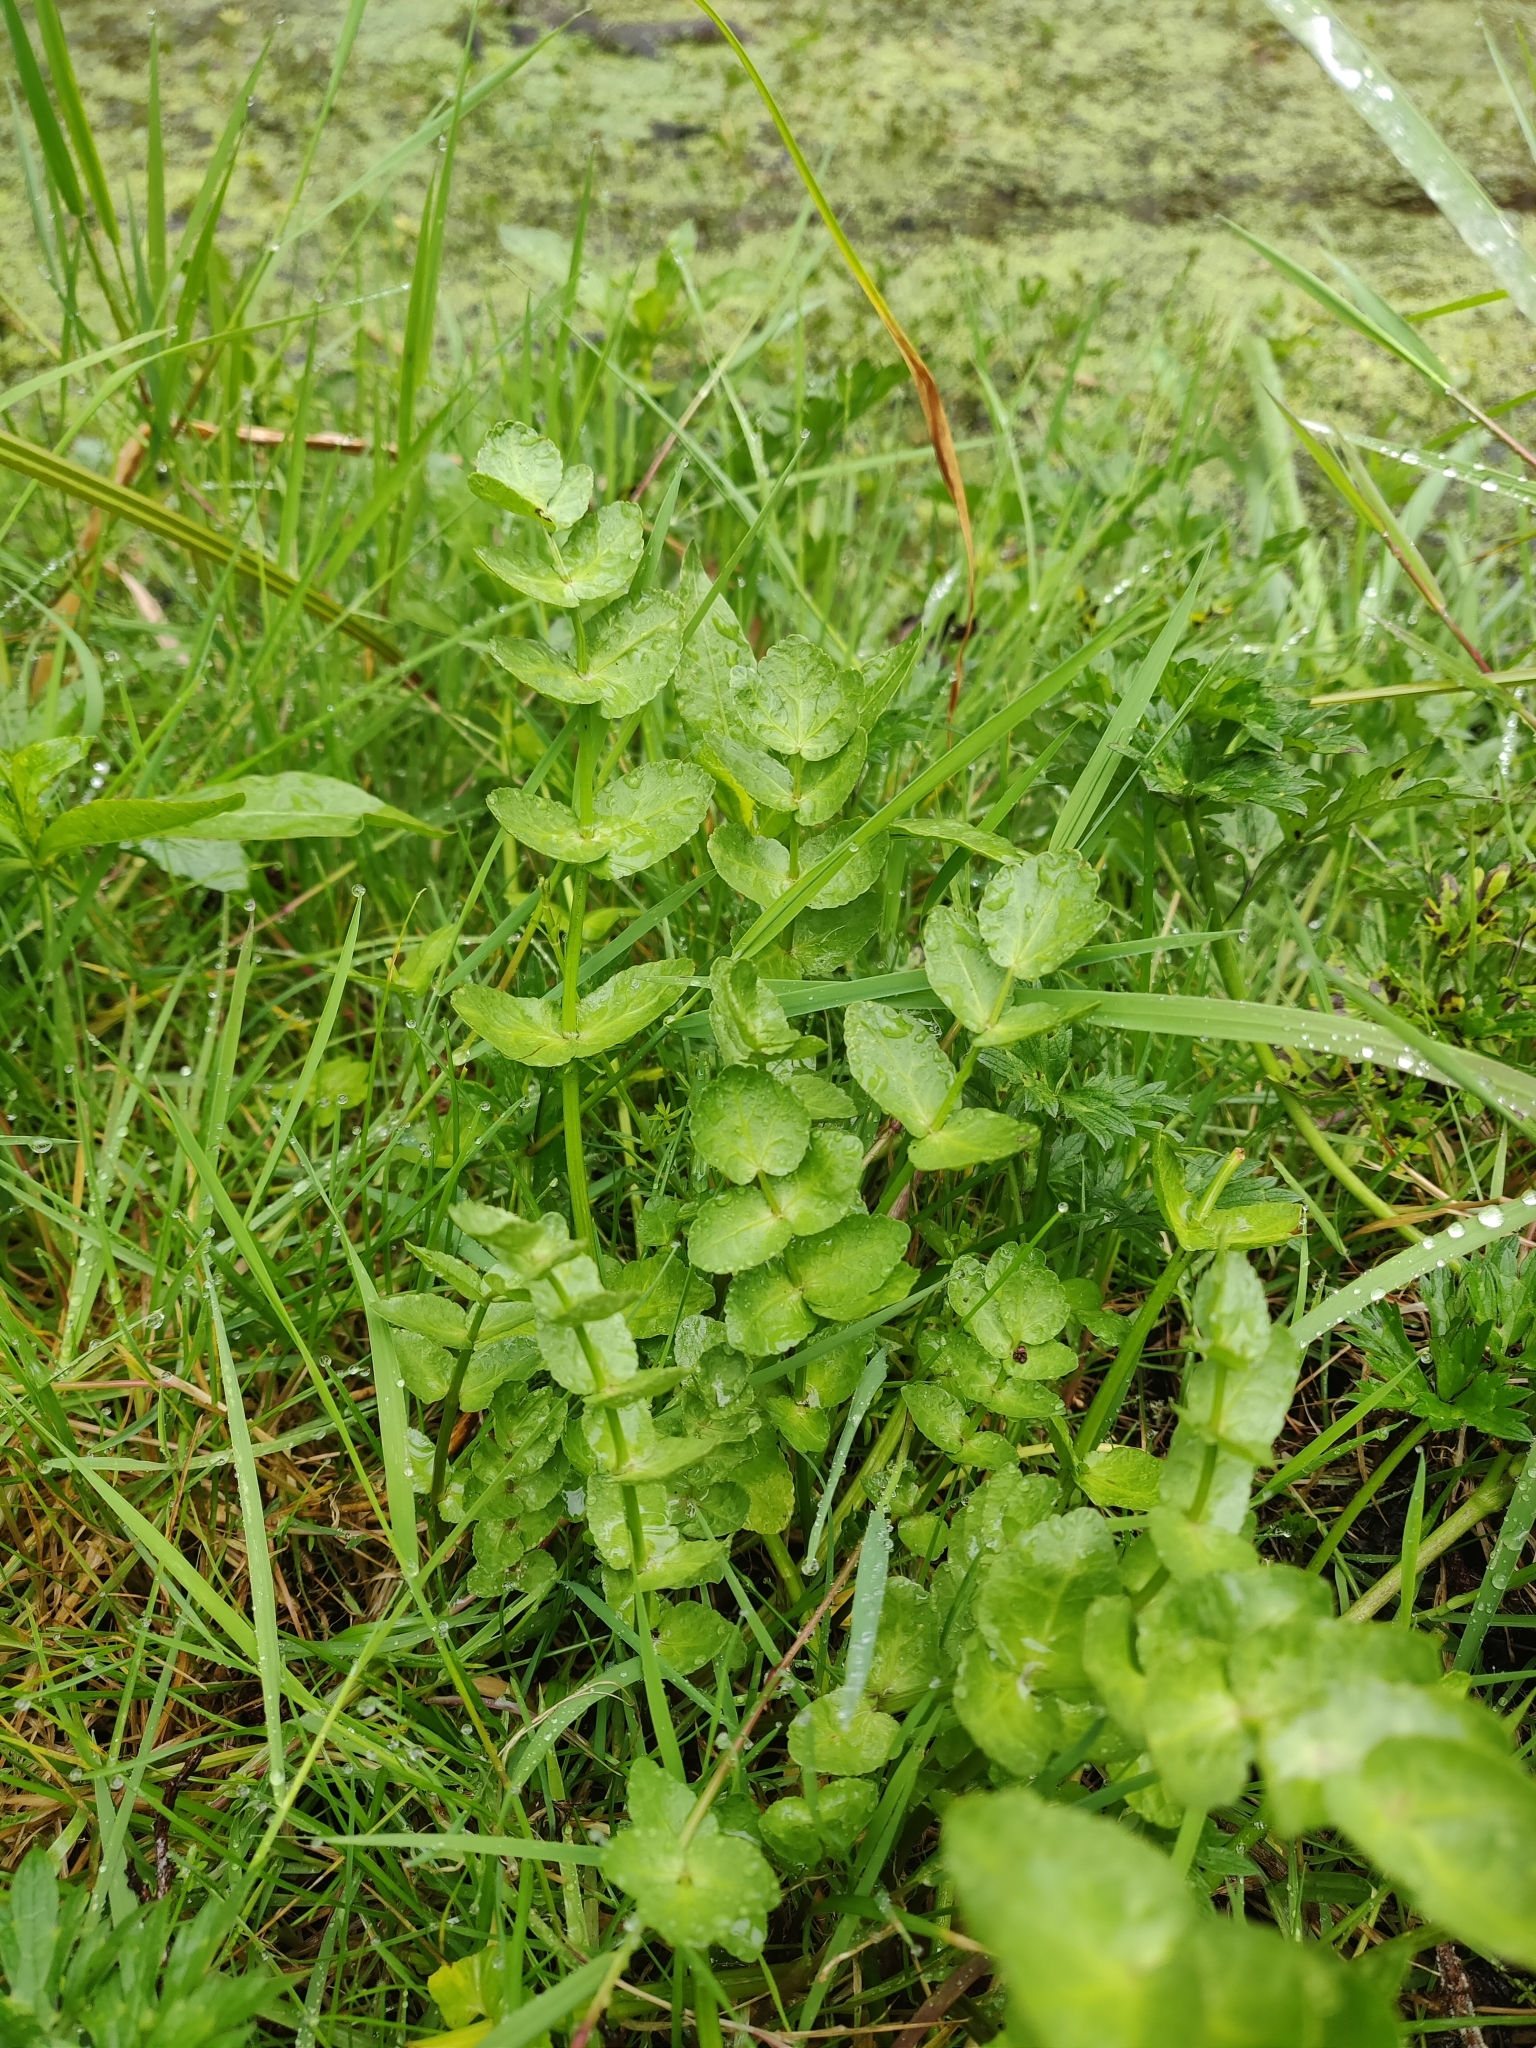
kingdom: Plantae
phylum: Tracheophyta
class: Magnoliopsida
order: Apiales
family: Apiaceae
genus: Helosciadium
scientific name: Helosciadium nodiflorum
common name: Fool's-watercress
